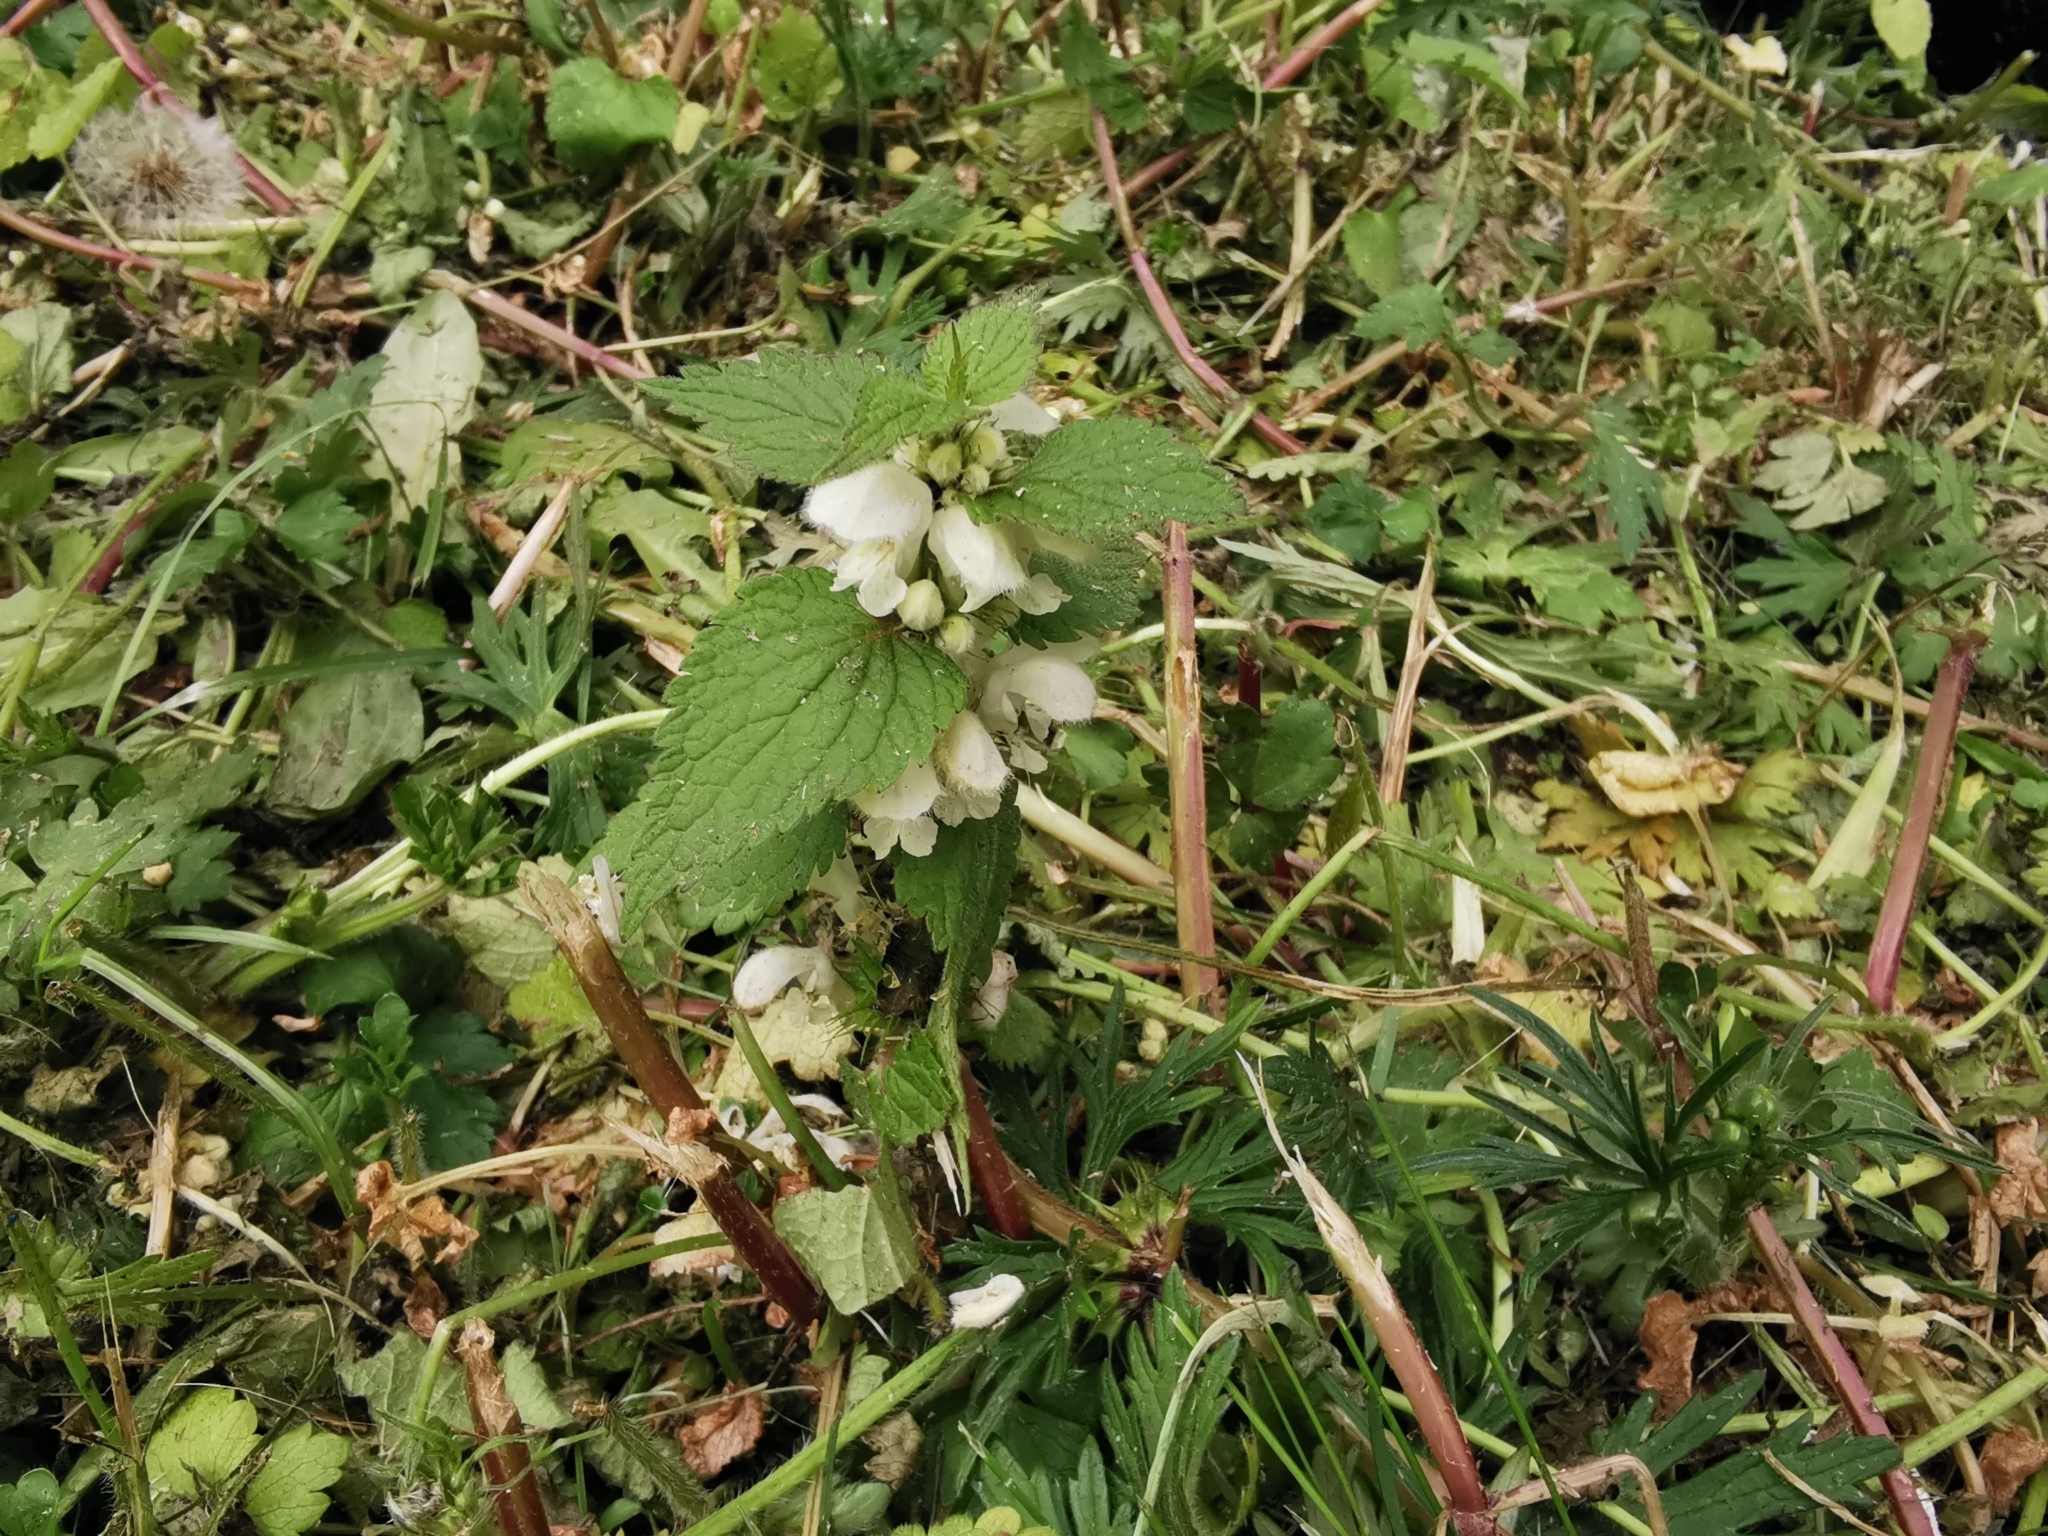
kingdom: Plantae
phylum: Tracheophyta
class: Magnoliopsida
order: Lamiales
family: Lamiaceae
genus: Lamium
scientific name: Lamium album
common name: White dead-nettle
